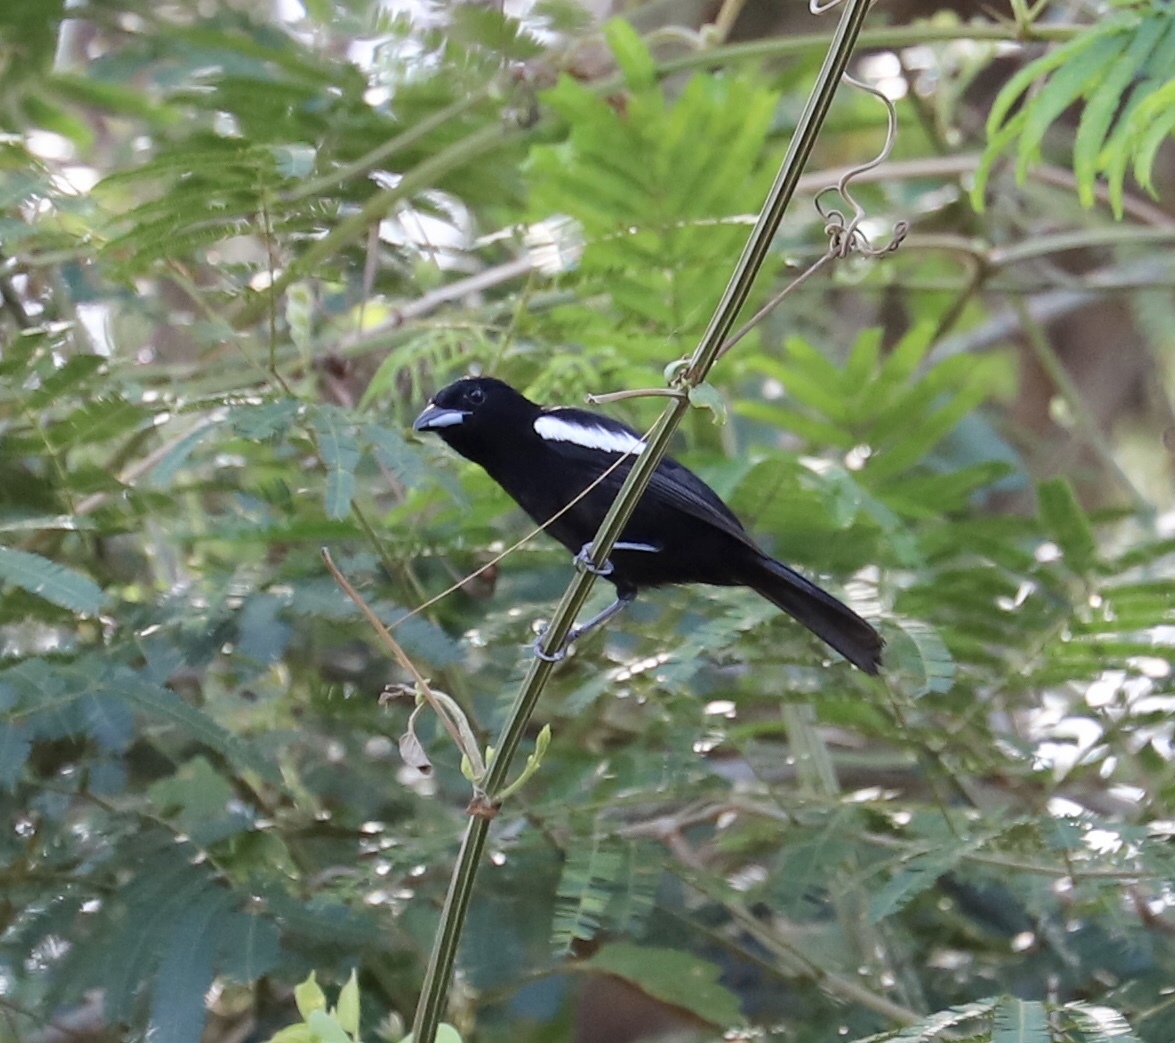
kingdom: Animalia
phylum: Chordata
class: Aves
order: Passeriformes
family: Thraupidae
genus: Loriotus
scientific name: Loriotus luctuosus
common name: White-shouldered tanager
